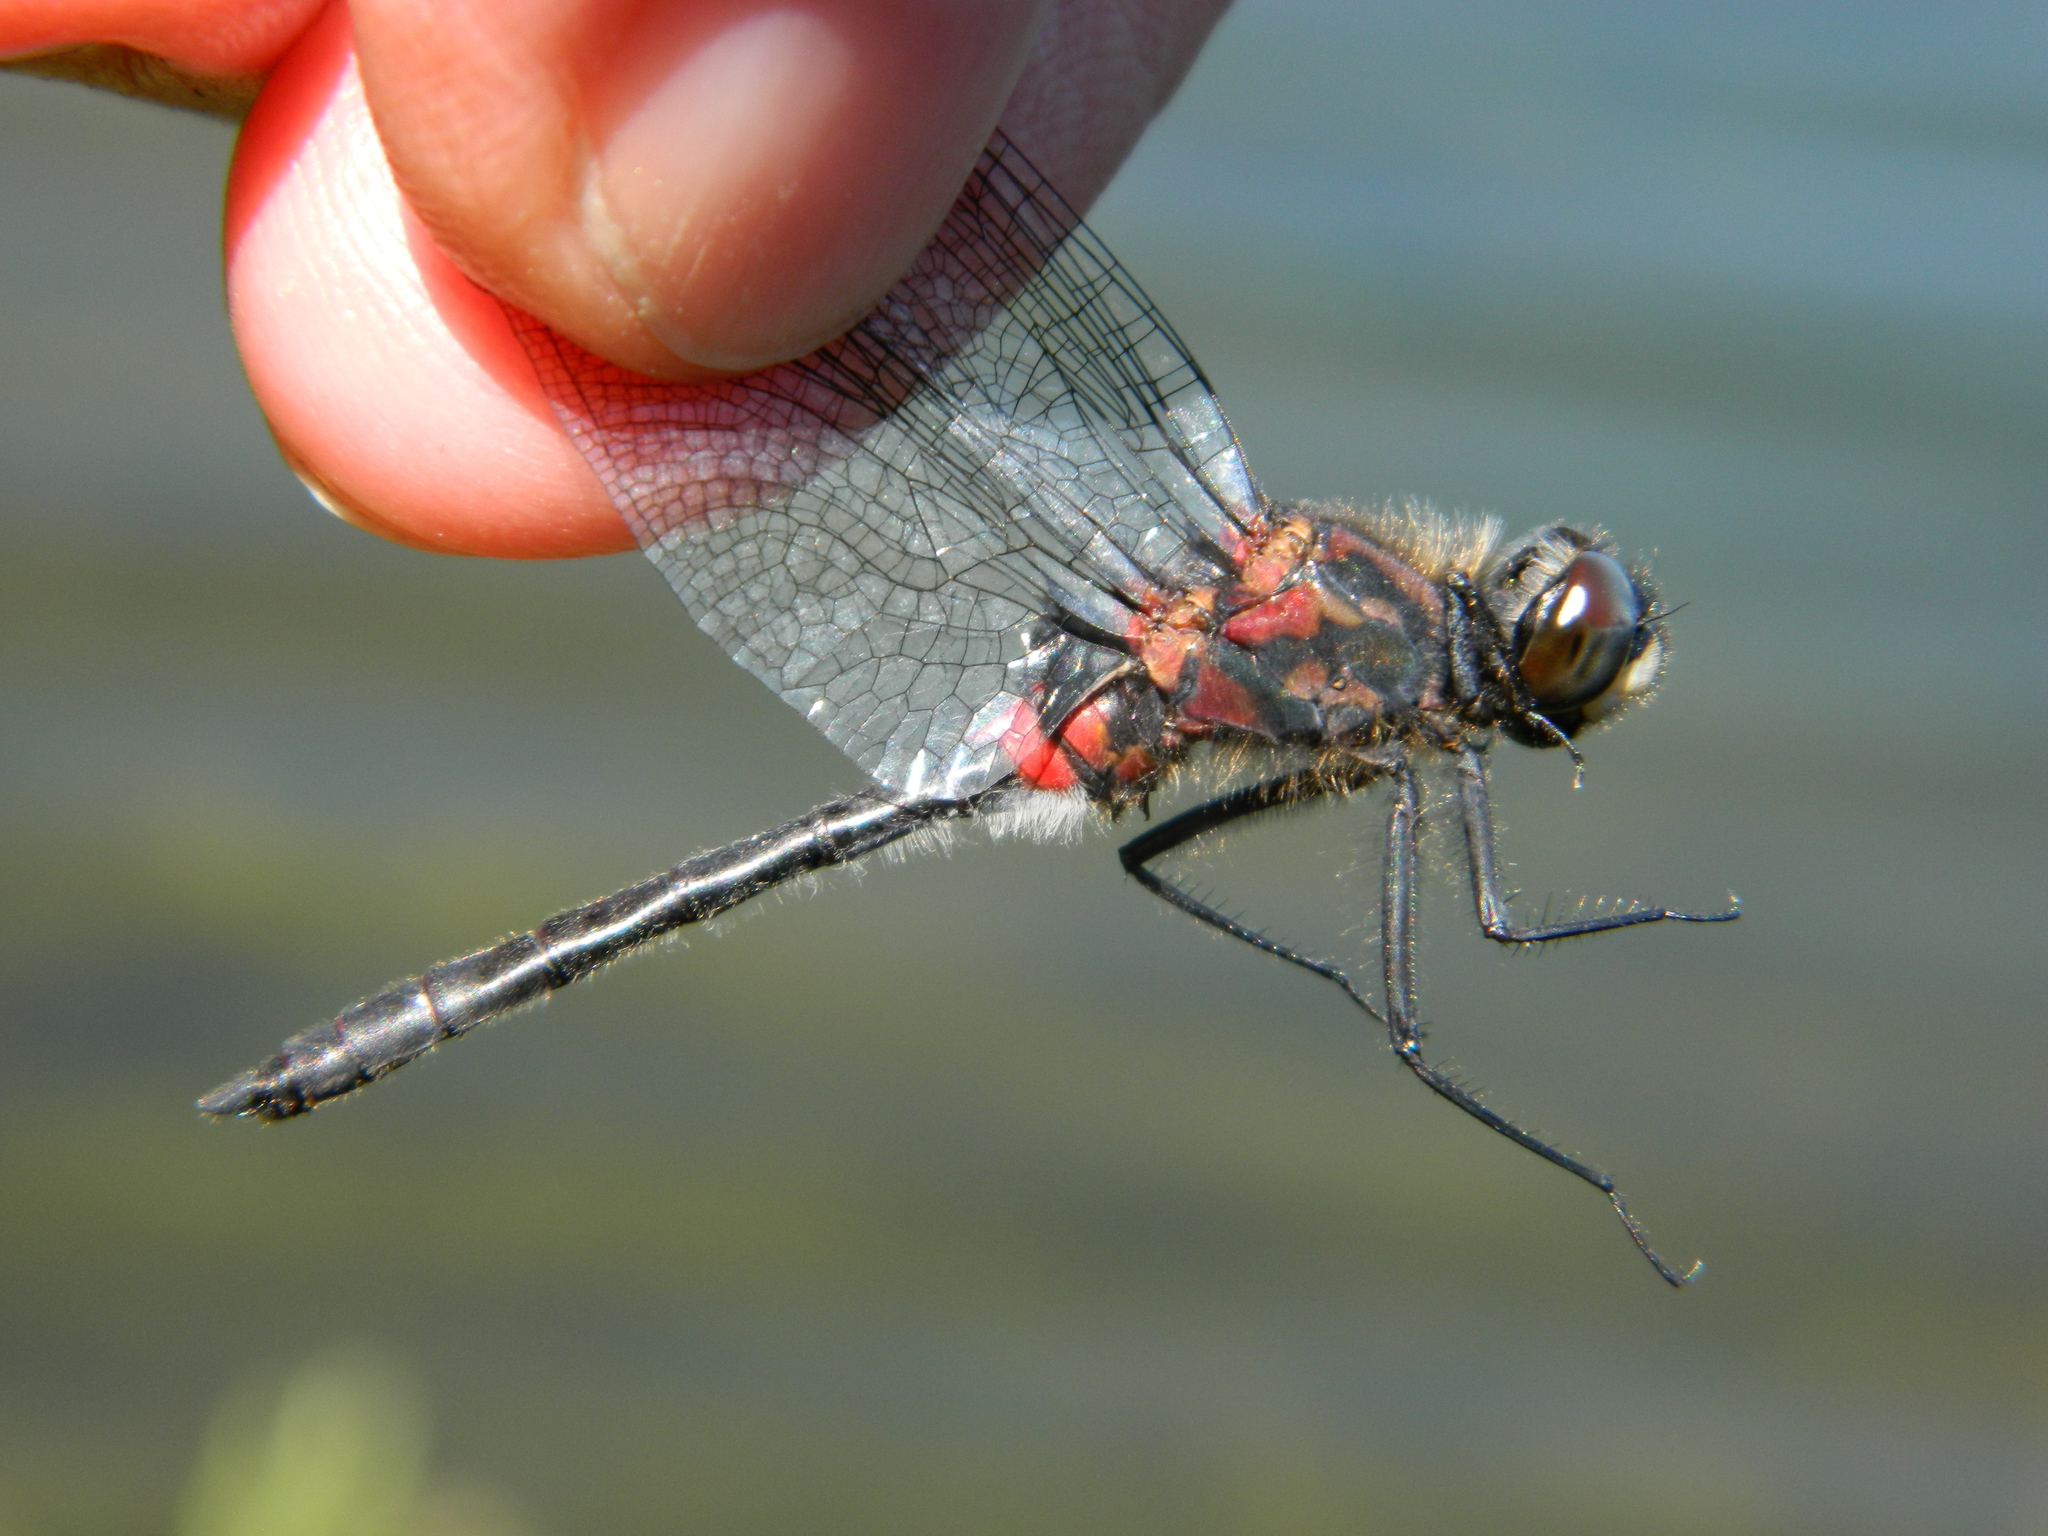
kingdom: Animalia
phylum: Arthropoda
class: Insecta
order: Odonata
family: Libellulidae
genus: Leucorrhinia
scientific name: Leucorrhinia glacialis
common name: Crimson-ringed whiteface
